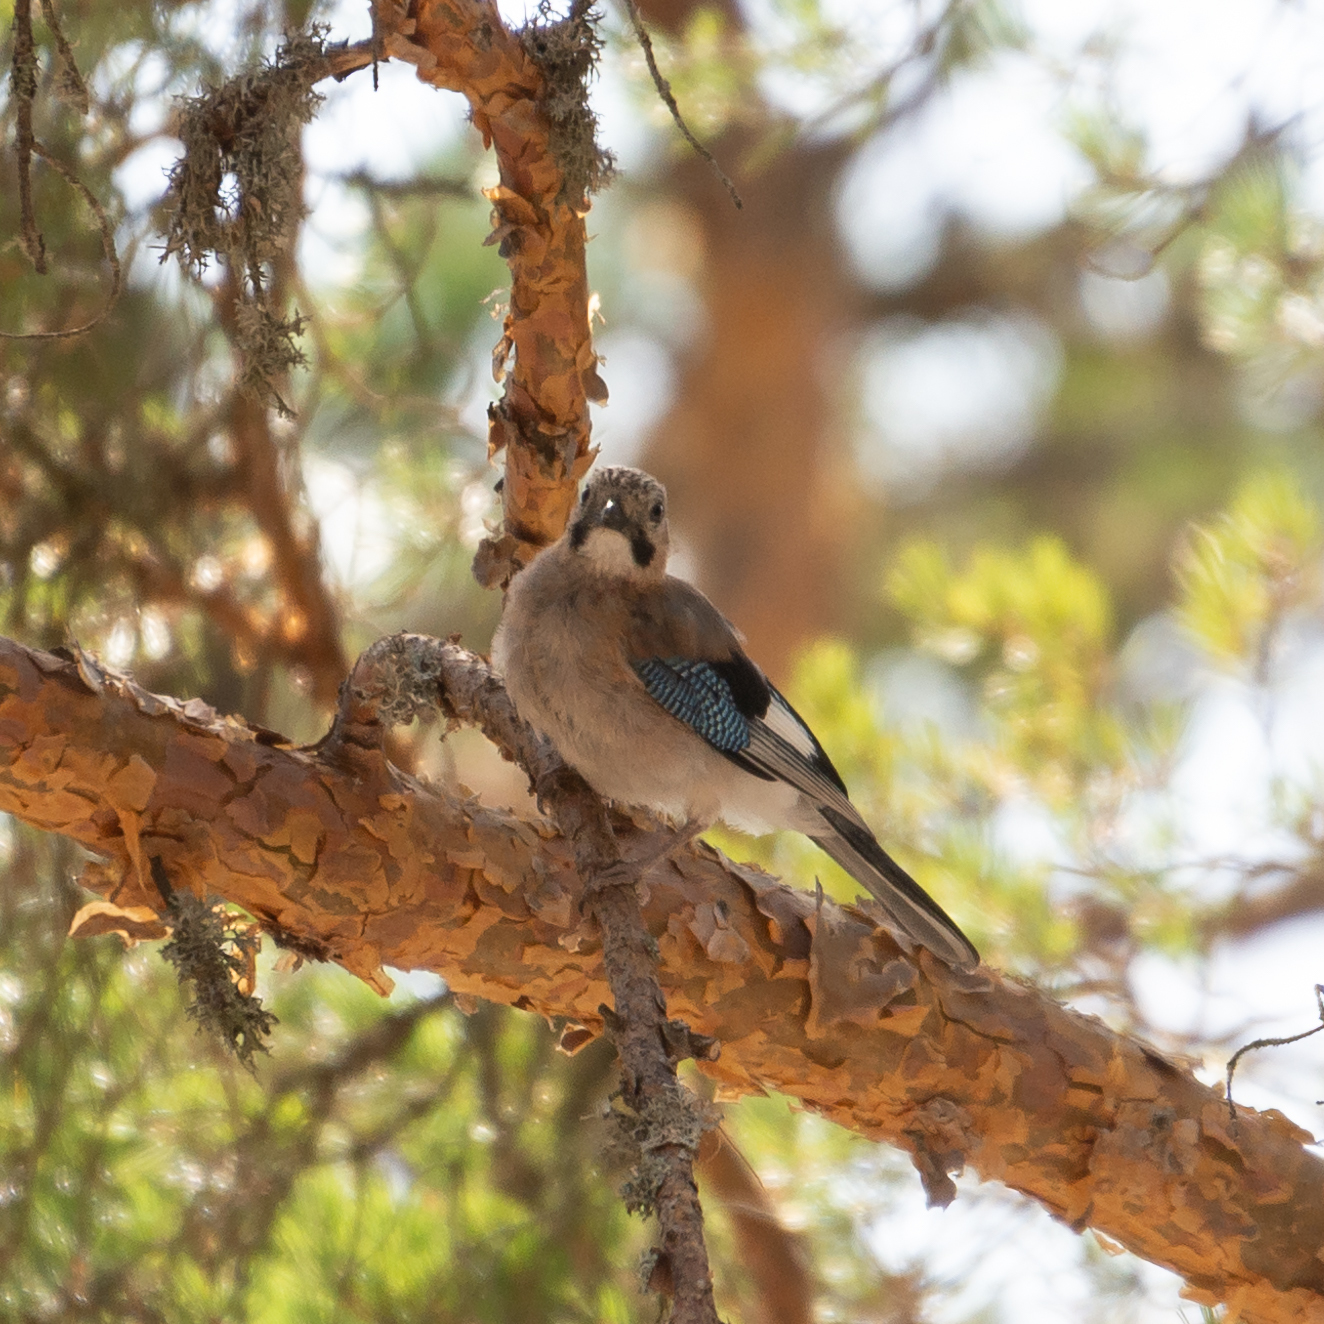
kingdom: Animalia
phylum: Chordata
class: Aves
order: Passeriformes
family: Corvidae
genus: Garrulus
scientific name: Garrulus glandarius
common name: Eurasian jay
